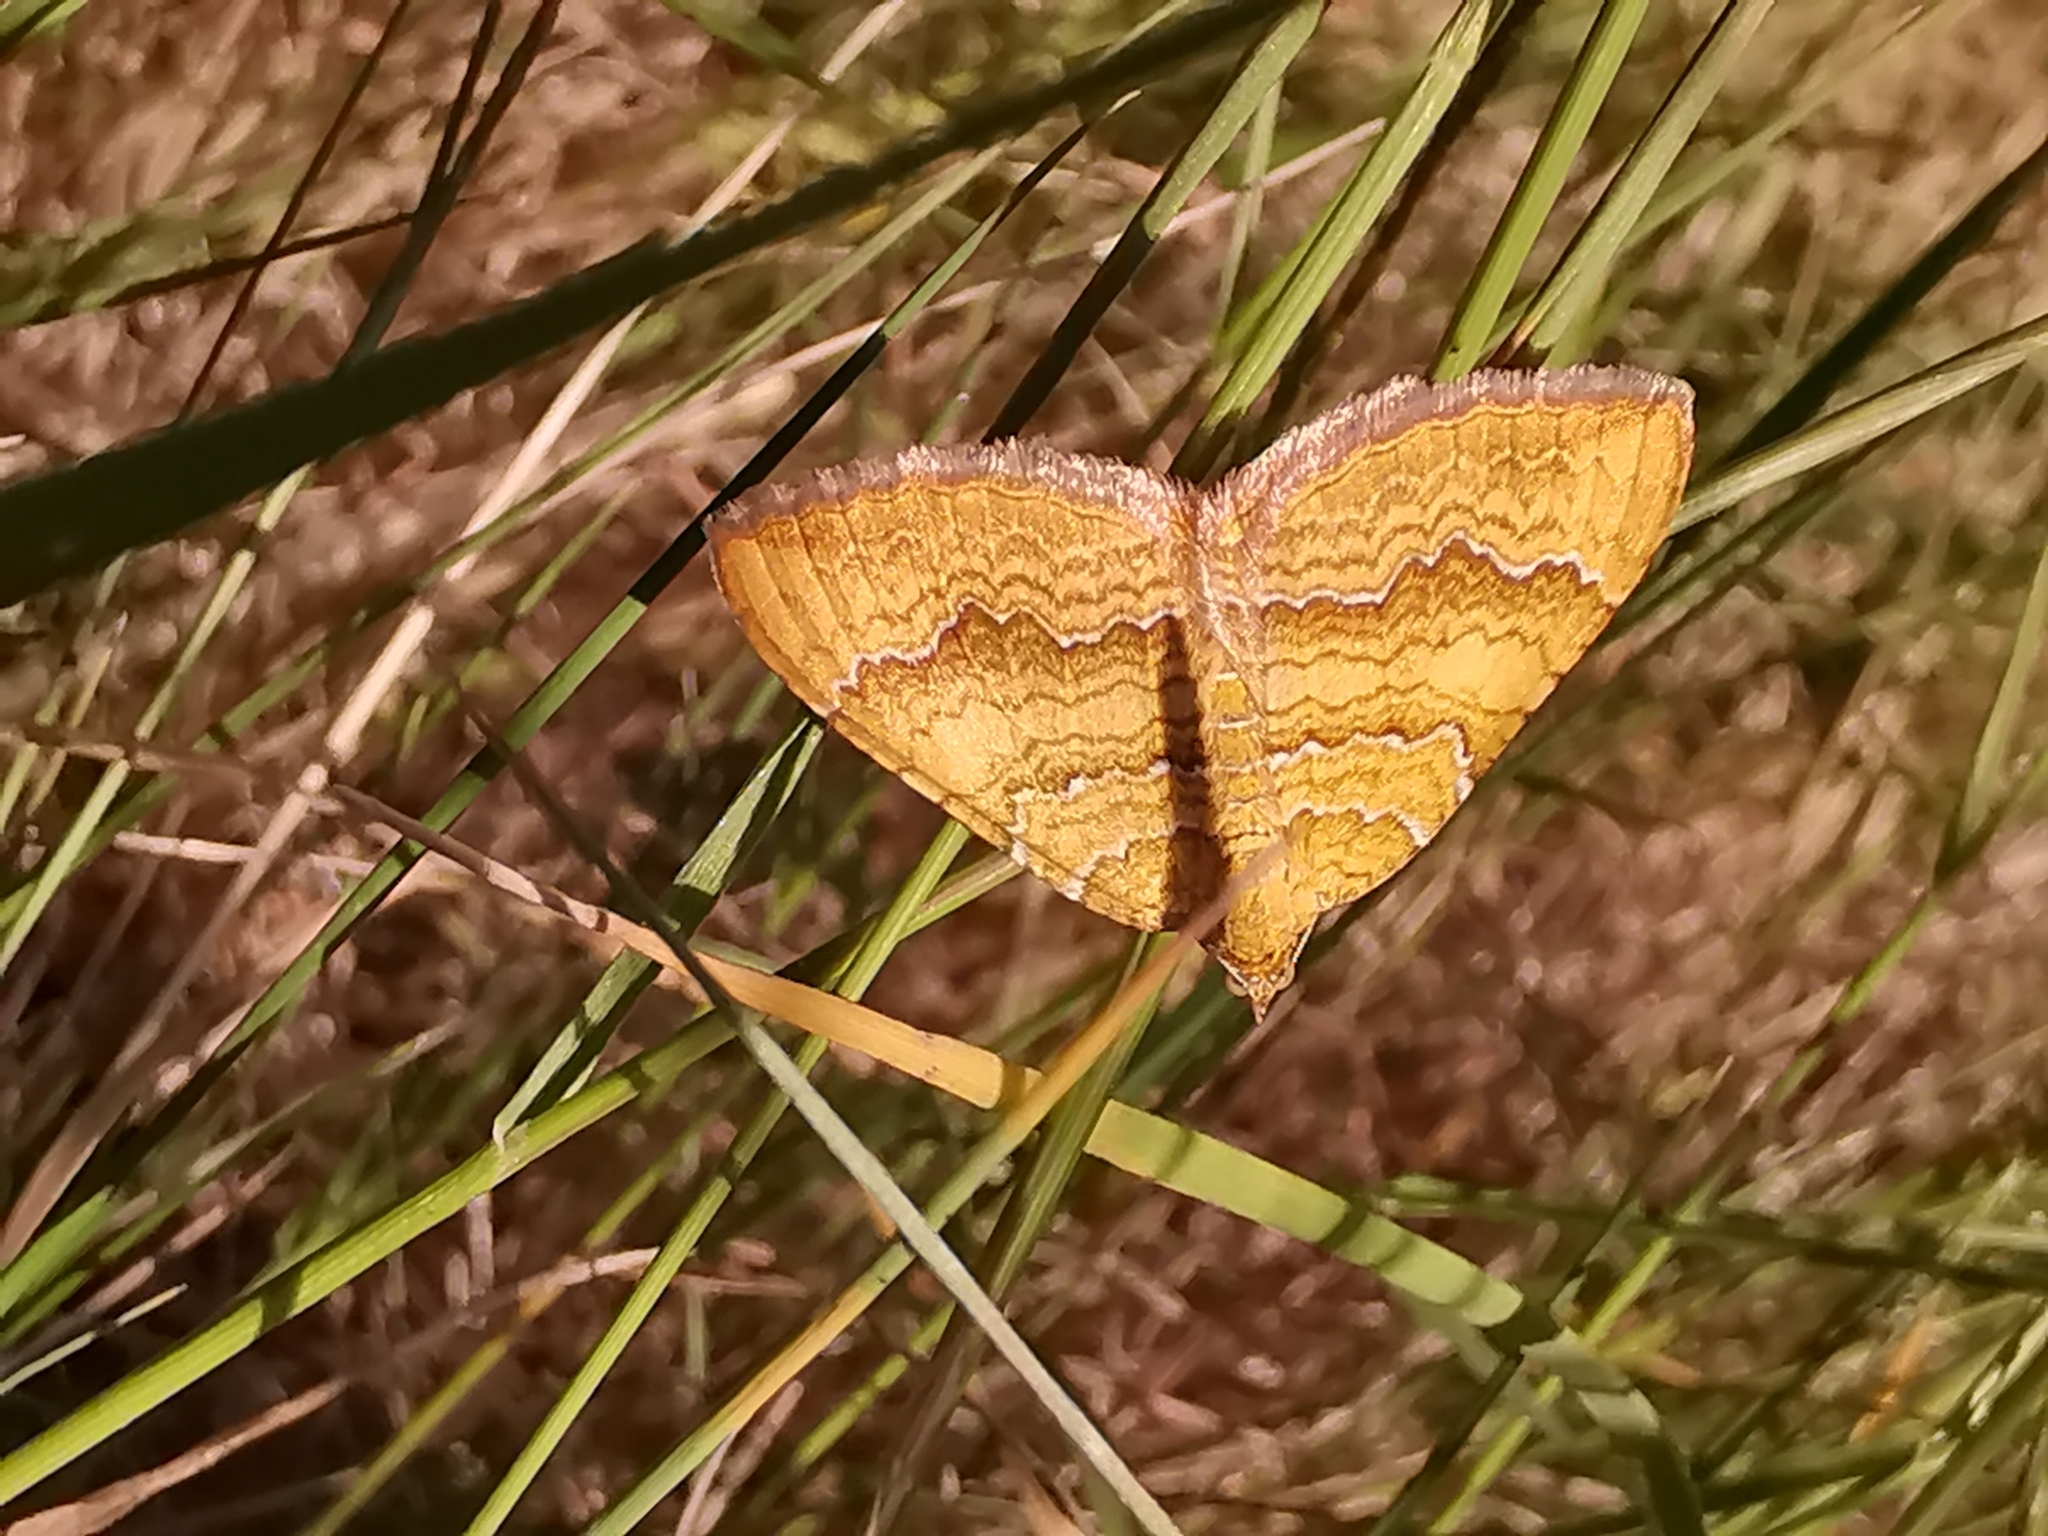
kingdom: Animalia
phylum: Arthropoda
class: Insecta
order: Lepidoptera
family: Geometridae
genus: Camptogramma
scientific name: Camptogramma bilineata
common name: Yellow shell
